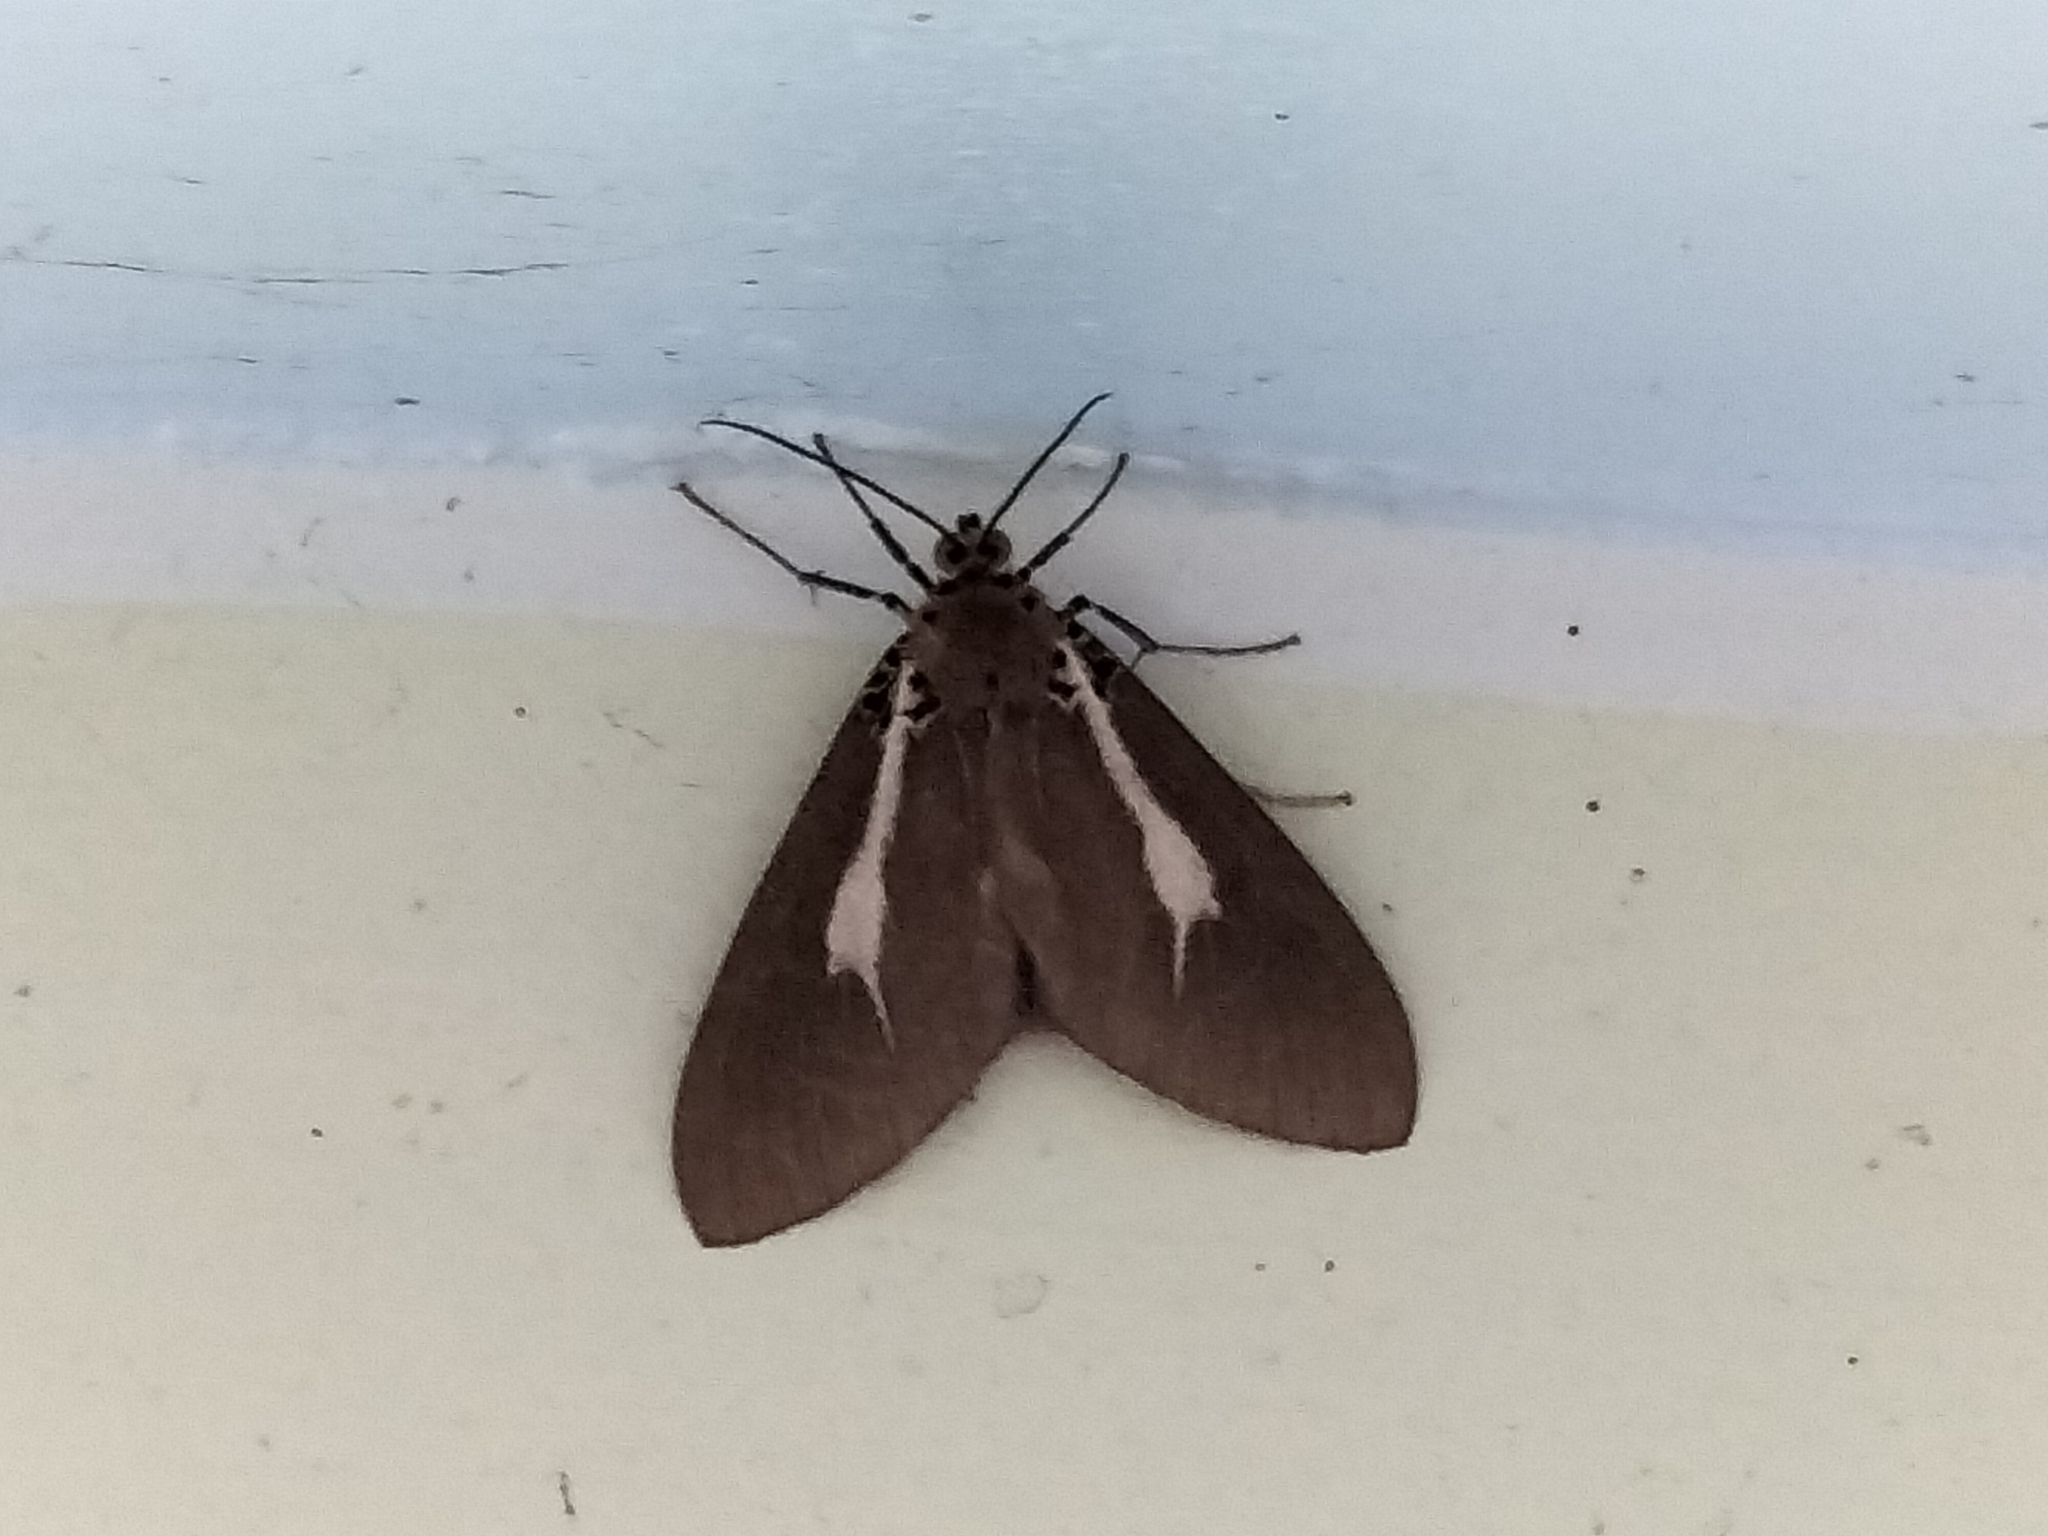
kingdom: Animalia
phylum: Arthropoda
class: Insecta
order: Lepidoptera
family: Erebidae
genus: Asota
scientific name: Asota heliconia
